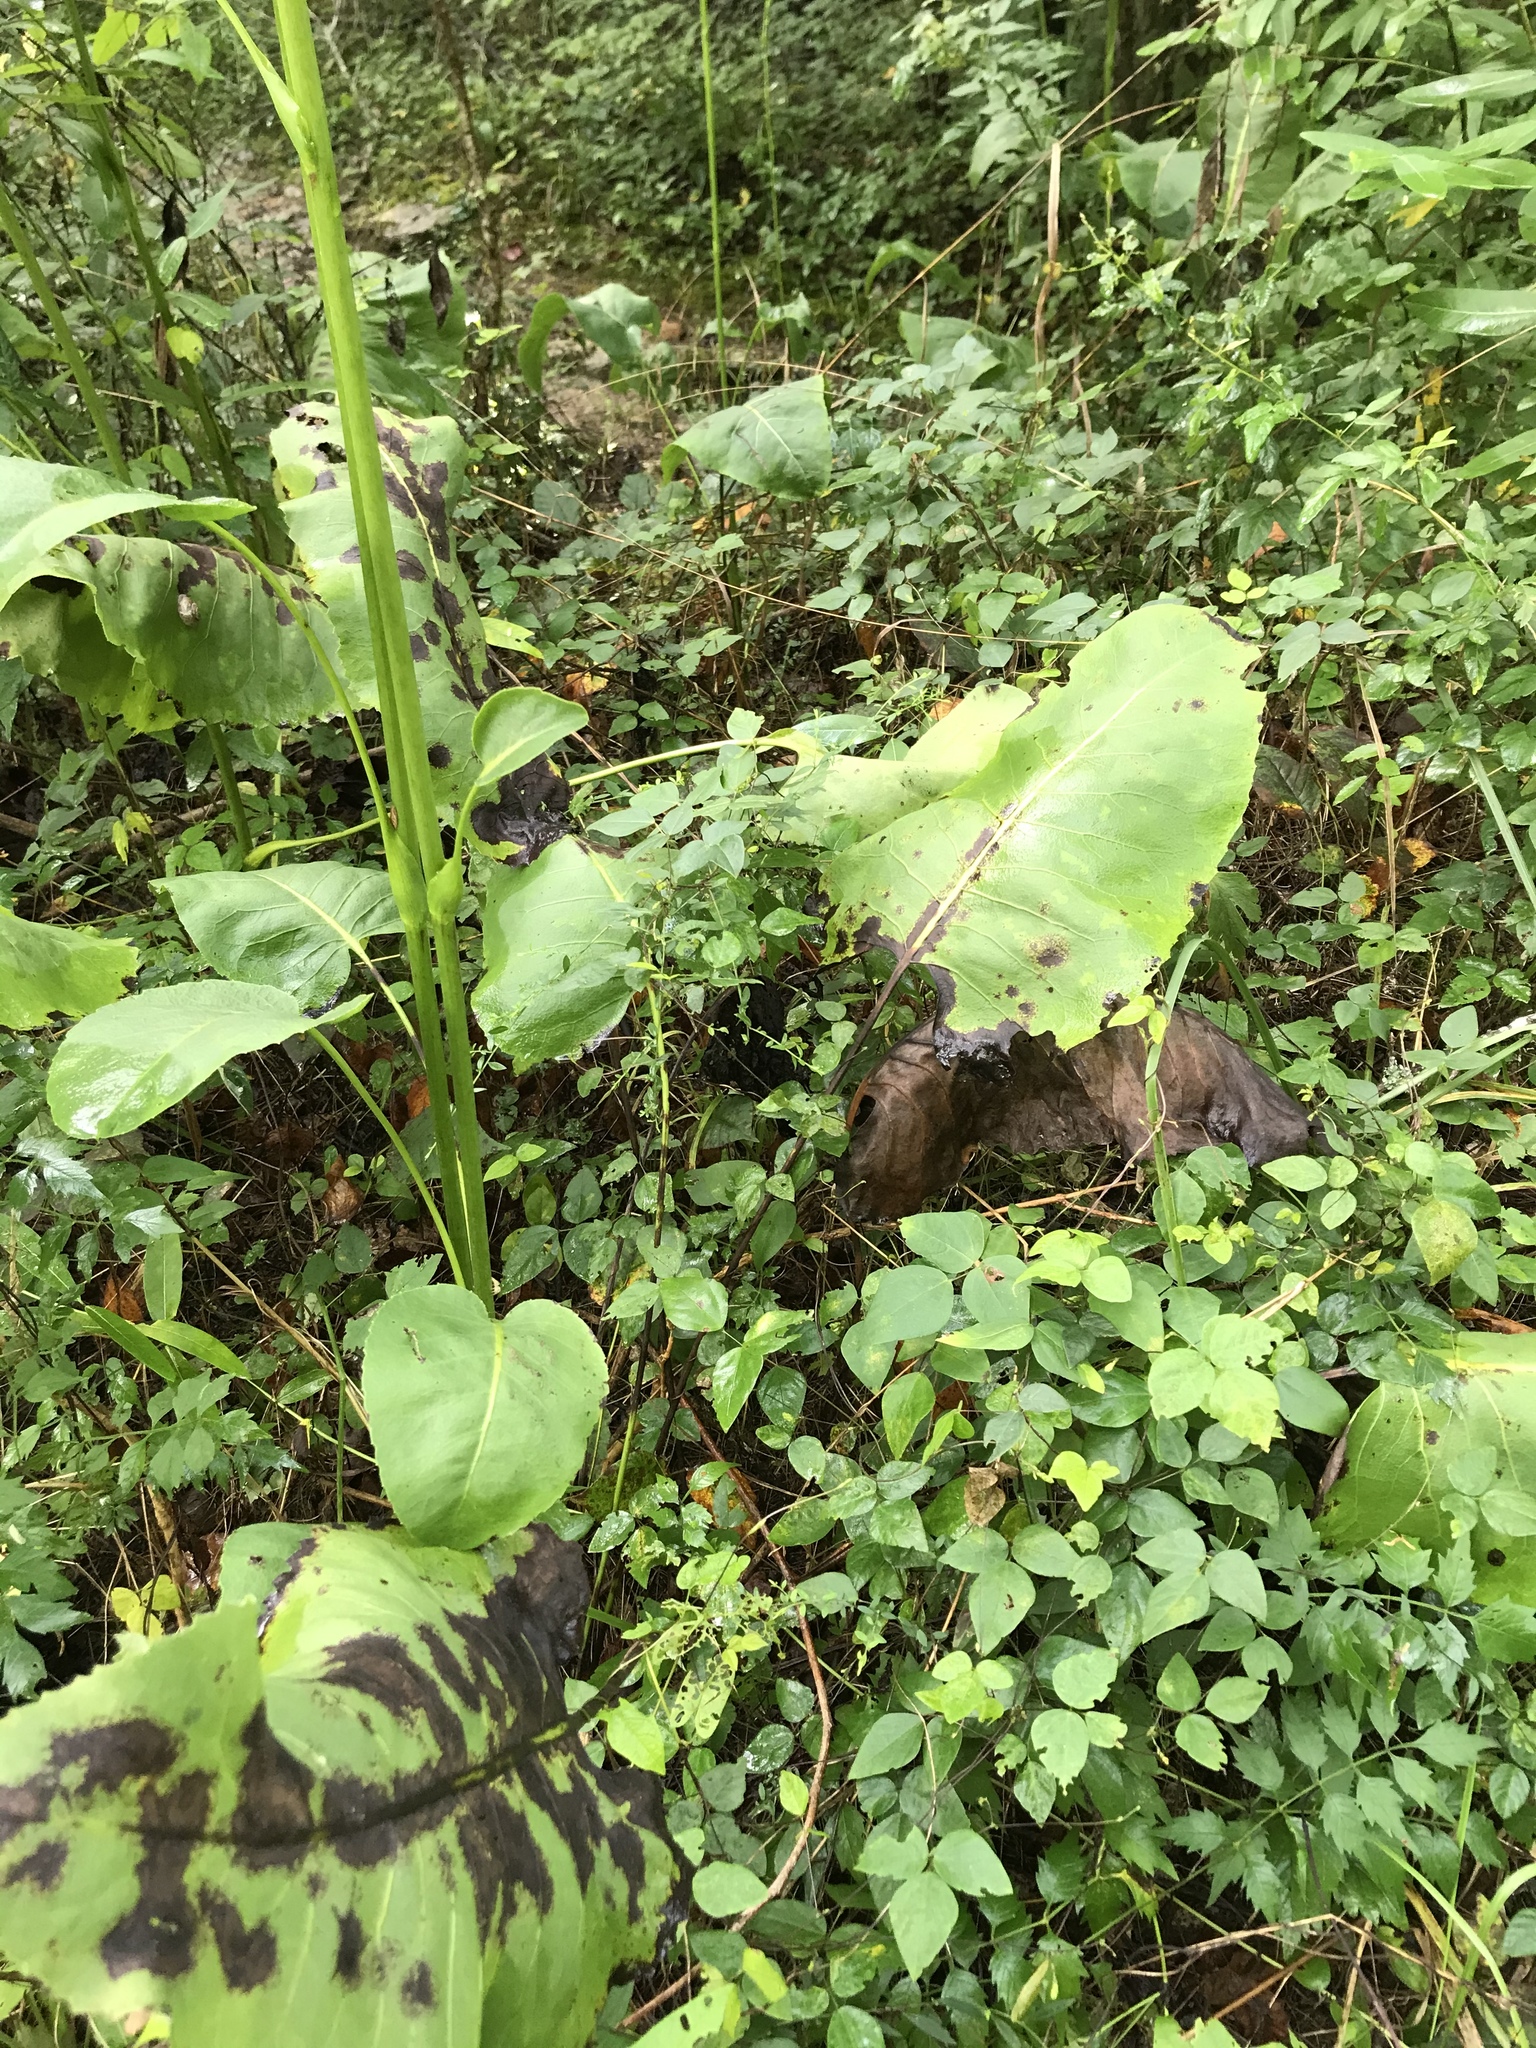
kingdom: Plantae
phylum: Tracheophyta
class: Magnoliopsida
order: Asterales
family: Asteraceae
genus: Silphium
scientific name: Silphium terebinthinaceum
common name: Basal-leaf rosinweed
